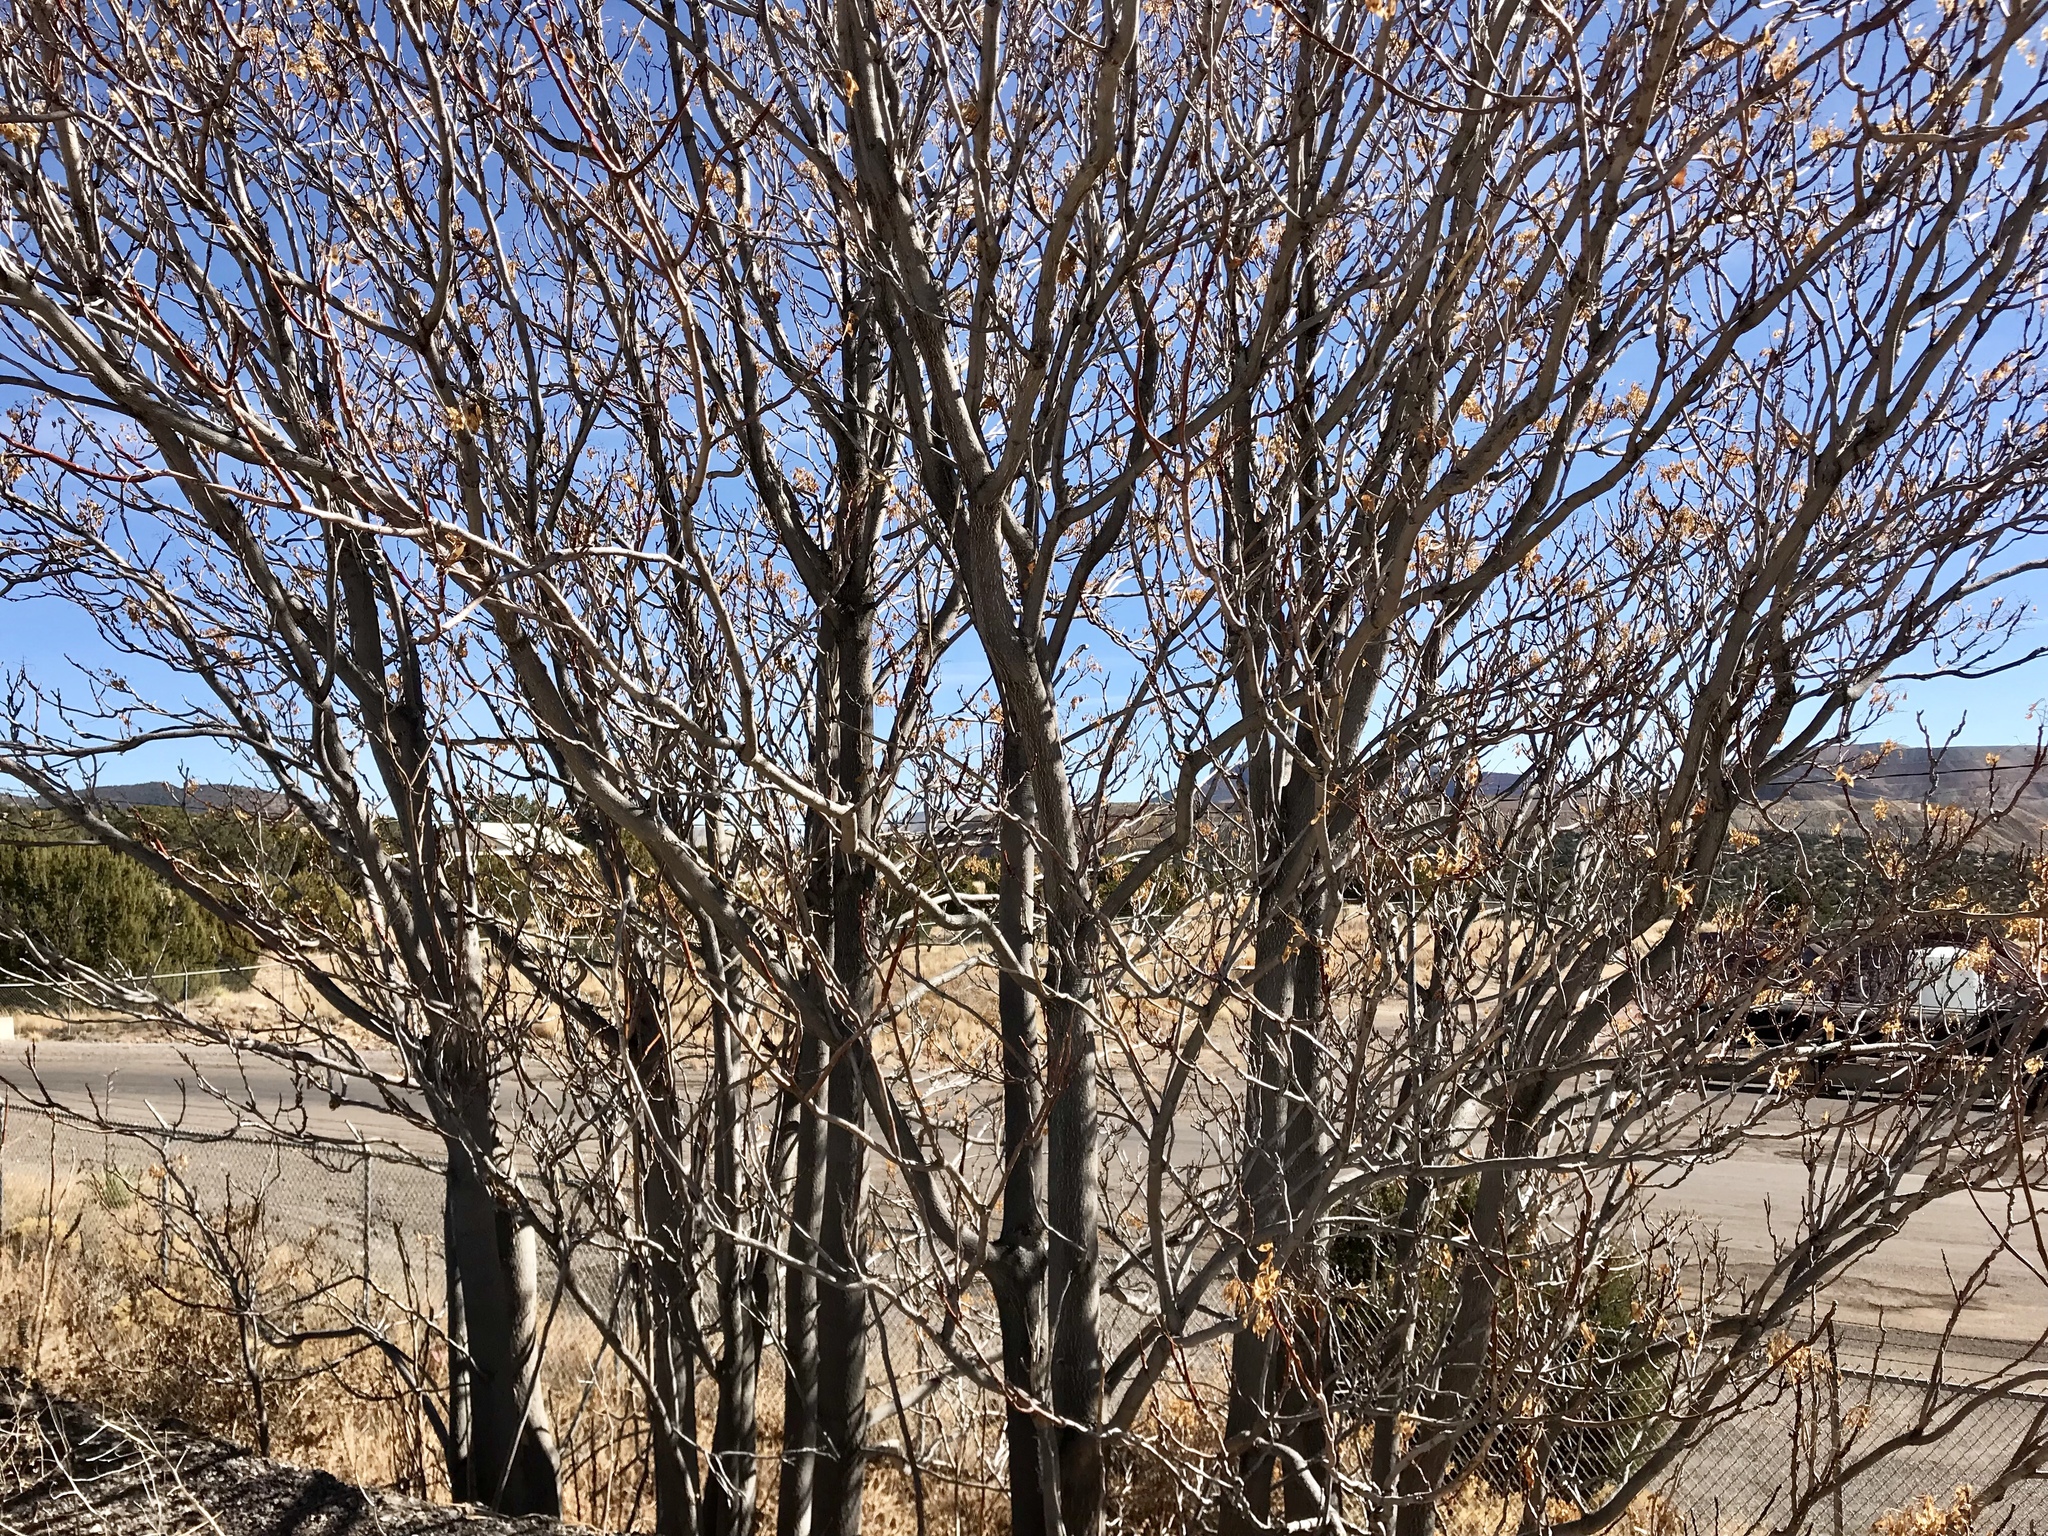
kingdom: Plantae
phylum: Tracheophyta
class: Magnoliopsida
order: Sapindales
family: Simaroubaceae
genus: Ailanthus
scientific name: Ailanthus altissima
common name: Tree-of-heaven
